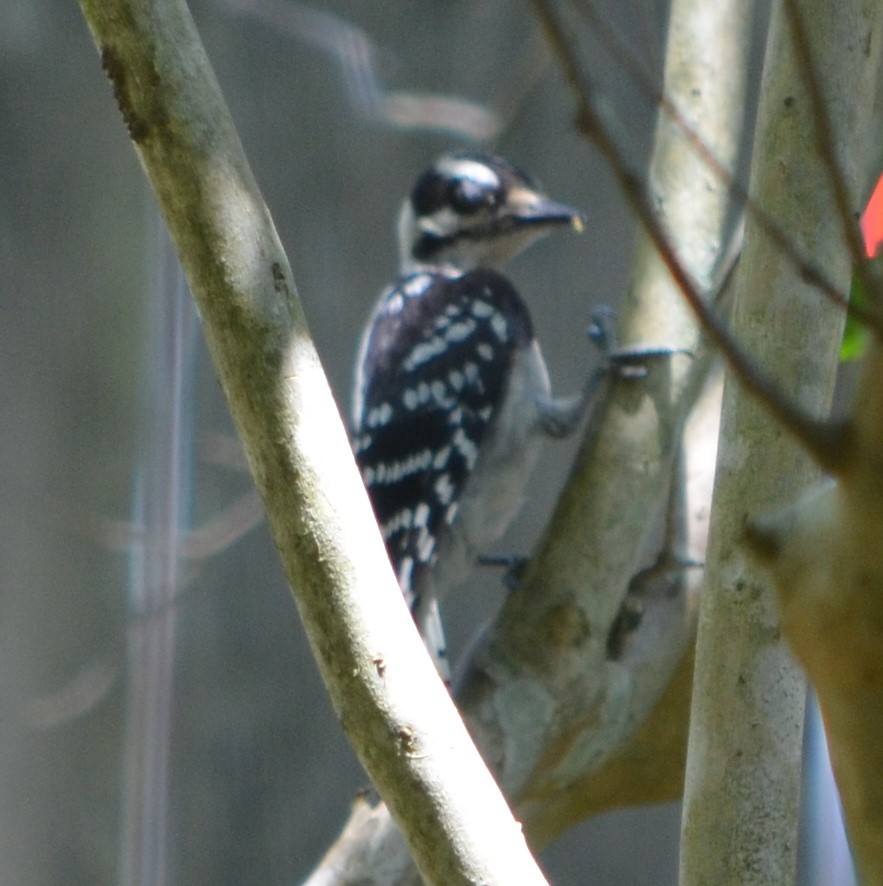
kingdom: Animalia
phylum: Chordata
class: Aves
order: Piciformes
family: Picidae
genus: Dryobates
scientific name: Dryobates pubescens
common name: Downy woodpecker
